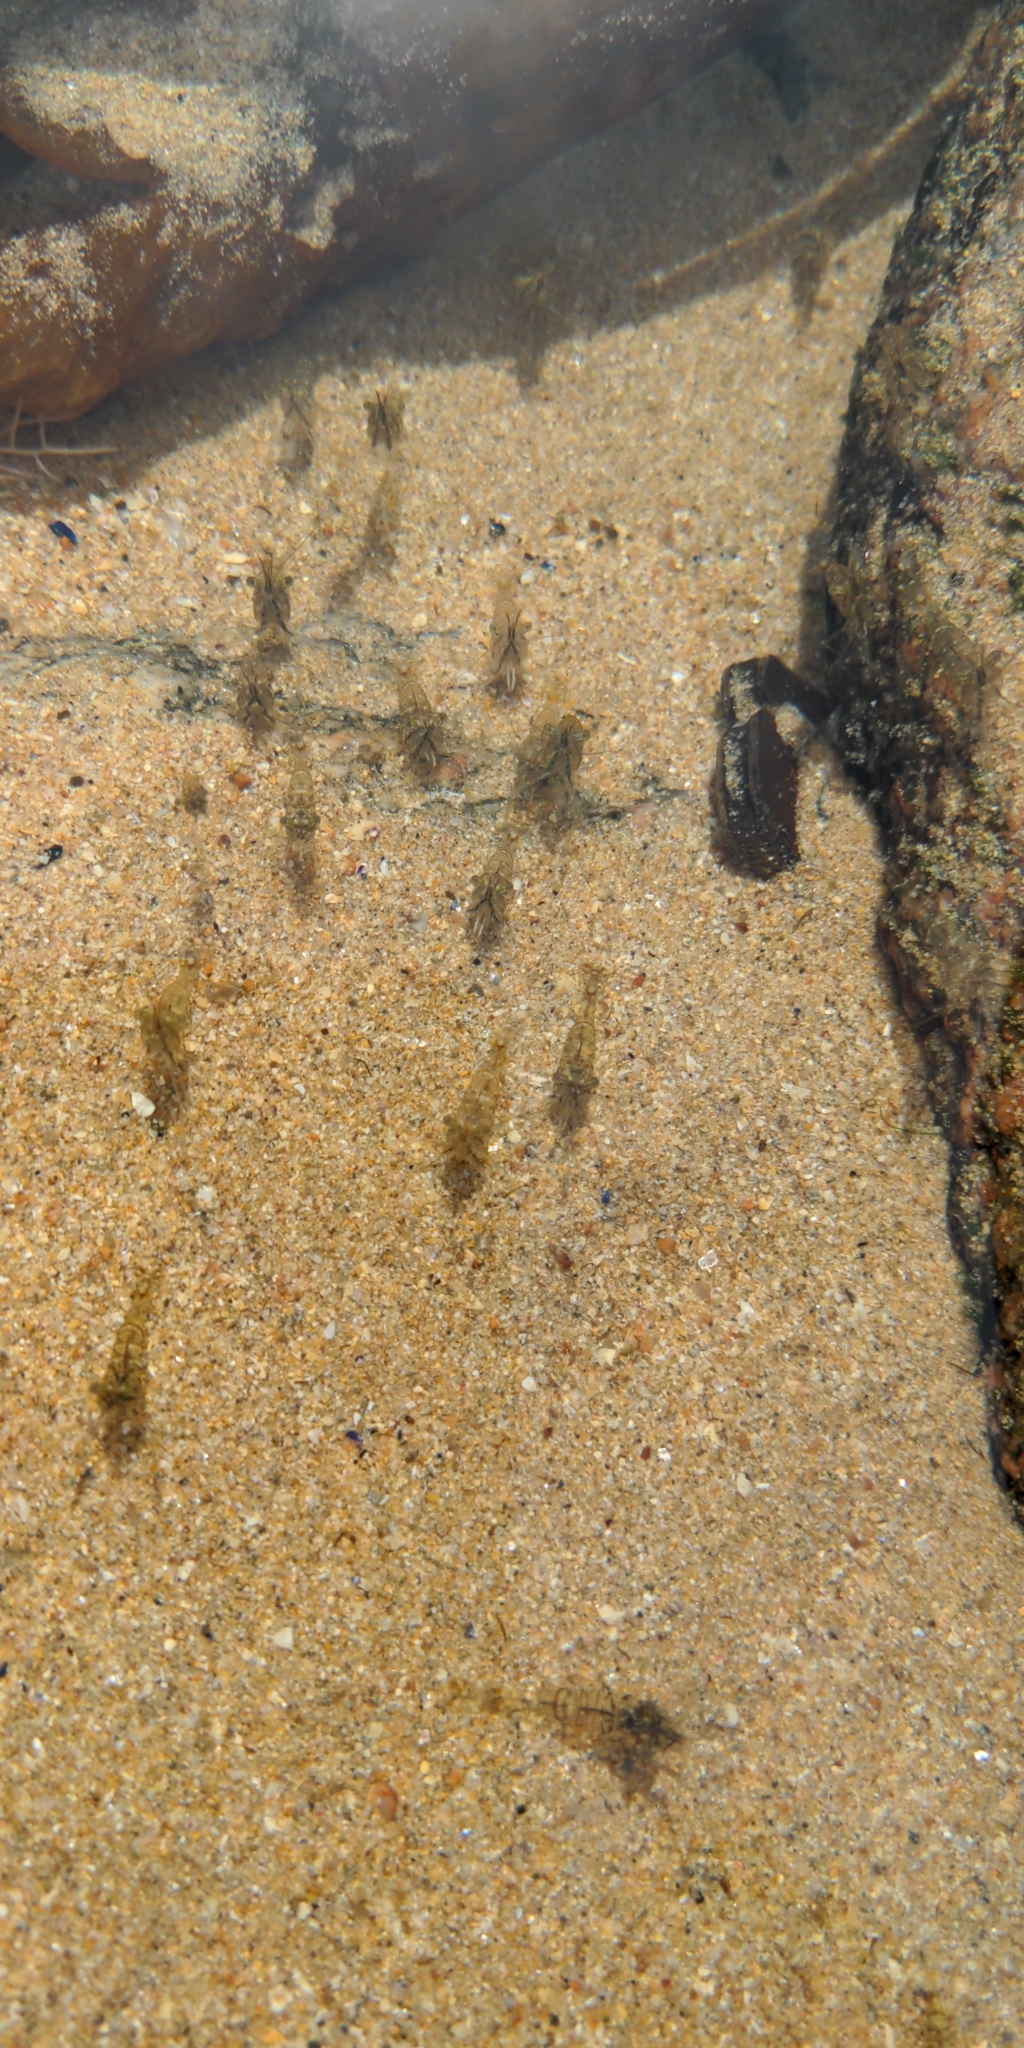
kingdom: Animalia
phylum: Arthropoda
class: Malacostraca
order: Decapoda
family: Palaemonidae
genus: Palaemon
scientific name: Palaemon elegans
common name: Grass prawm
